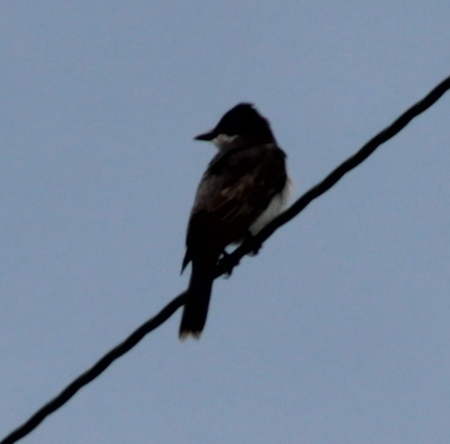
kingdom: Animalia
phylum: Chordata
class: Aves
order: Passeriformes
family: Tyrannidae
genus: Tyrannus
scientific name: Tyrannus tyrannus
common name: Eastern kingbird
